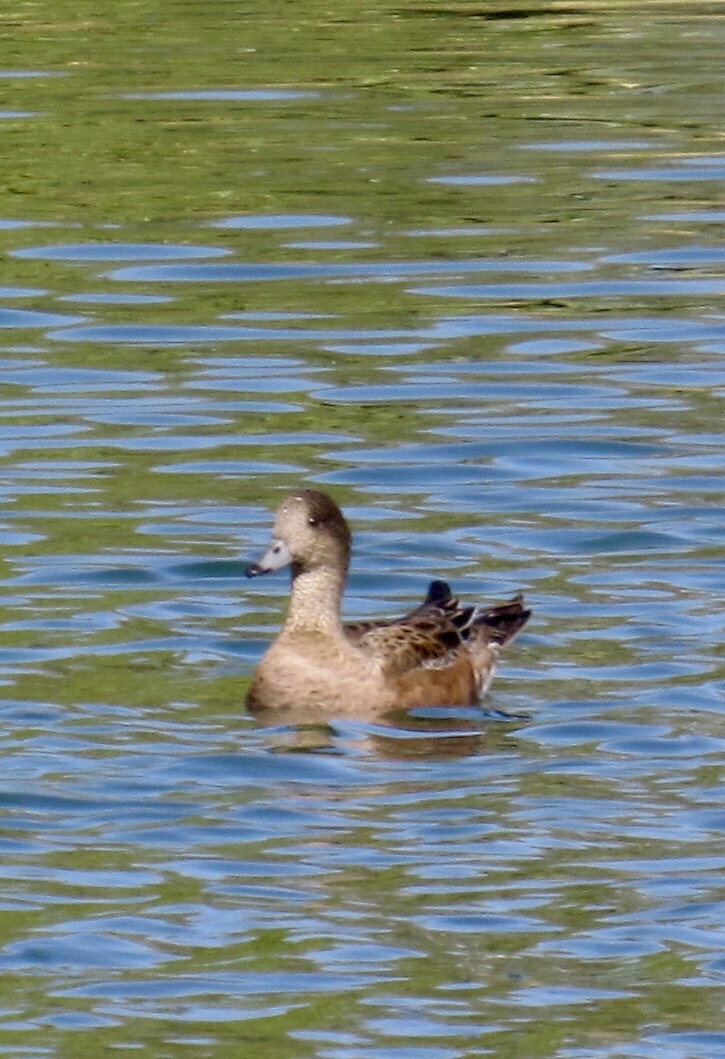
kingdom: Animalia
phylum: Chordata
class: Aves
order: Anseriformes
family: Anatidae
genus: Mareca
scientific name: Mareca americana
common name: American wigeon
